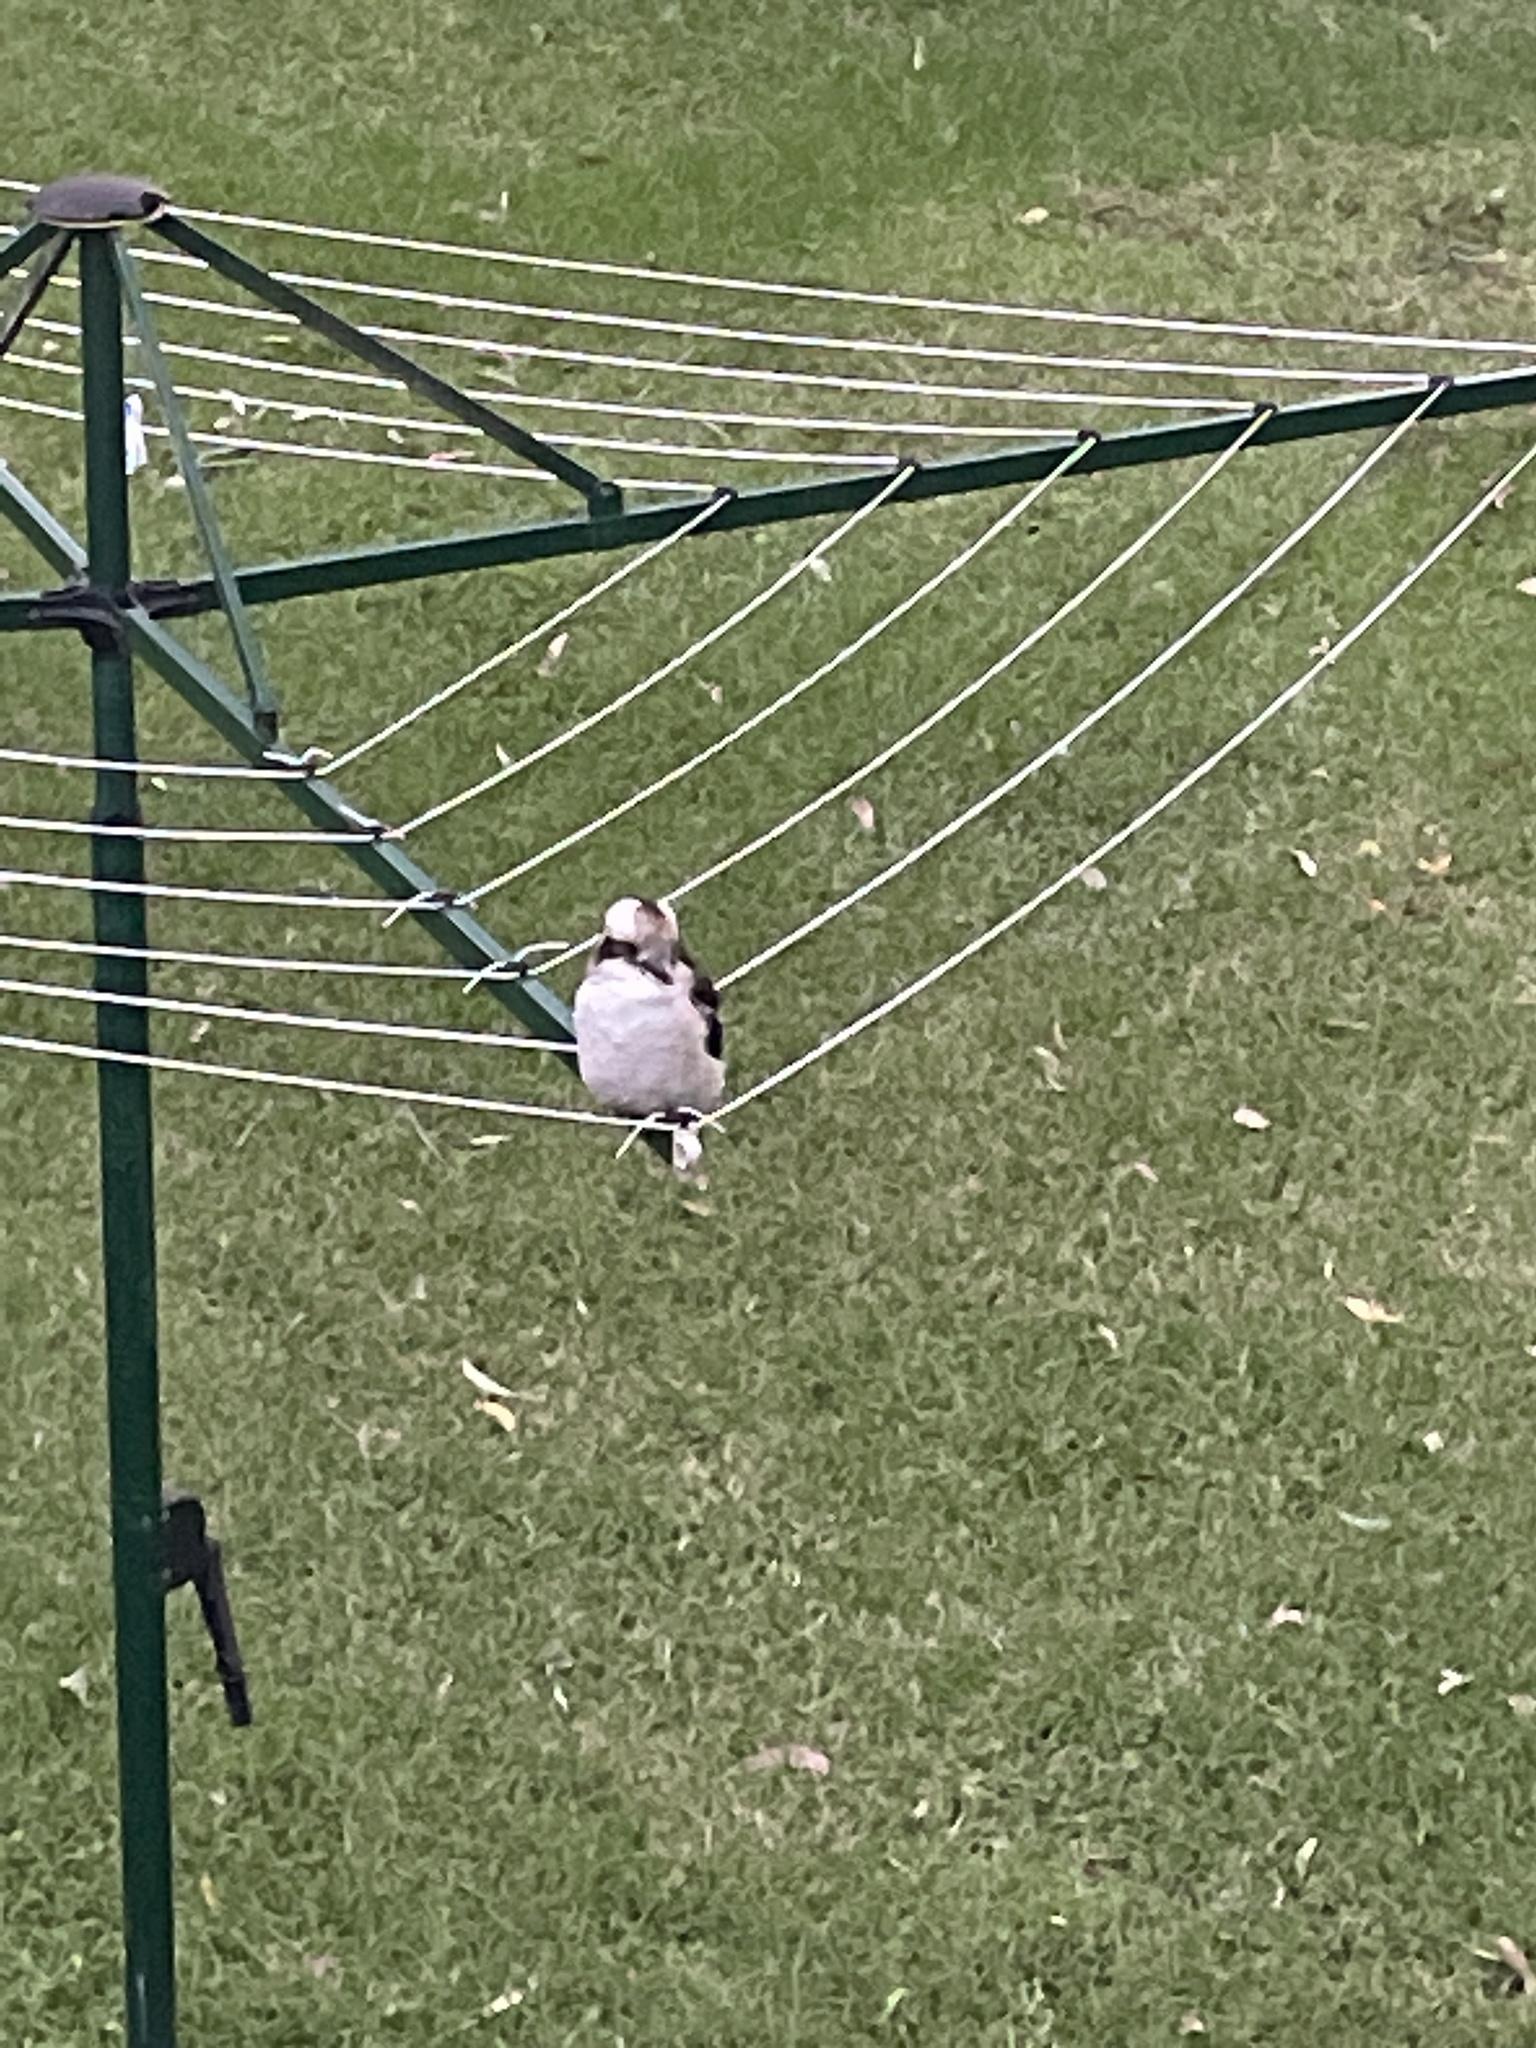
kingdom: Animalia
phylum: Chordata
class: Aves
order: Coraciiformes
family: Alcedinidae
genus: Dacelo
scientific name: Dacelo novaeguineae
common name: Laughing kookaburra
